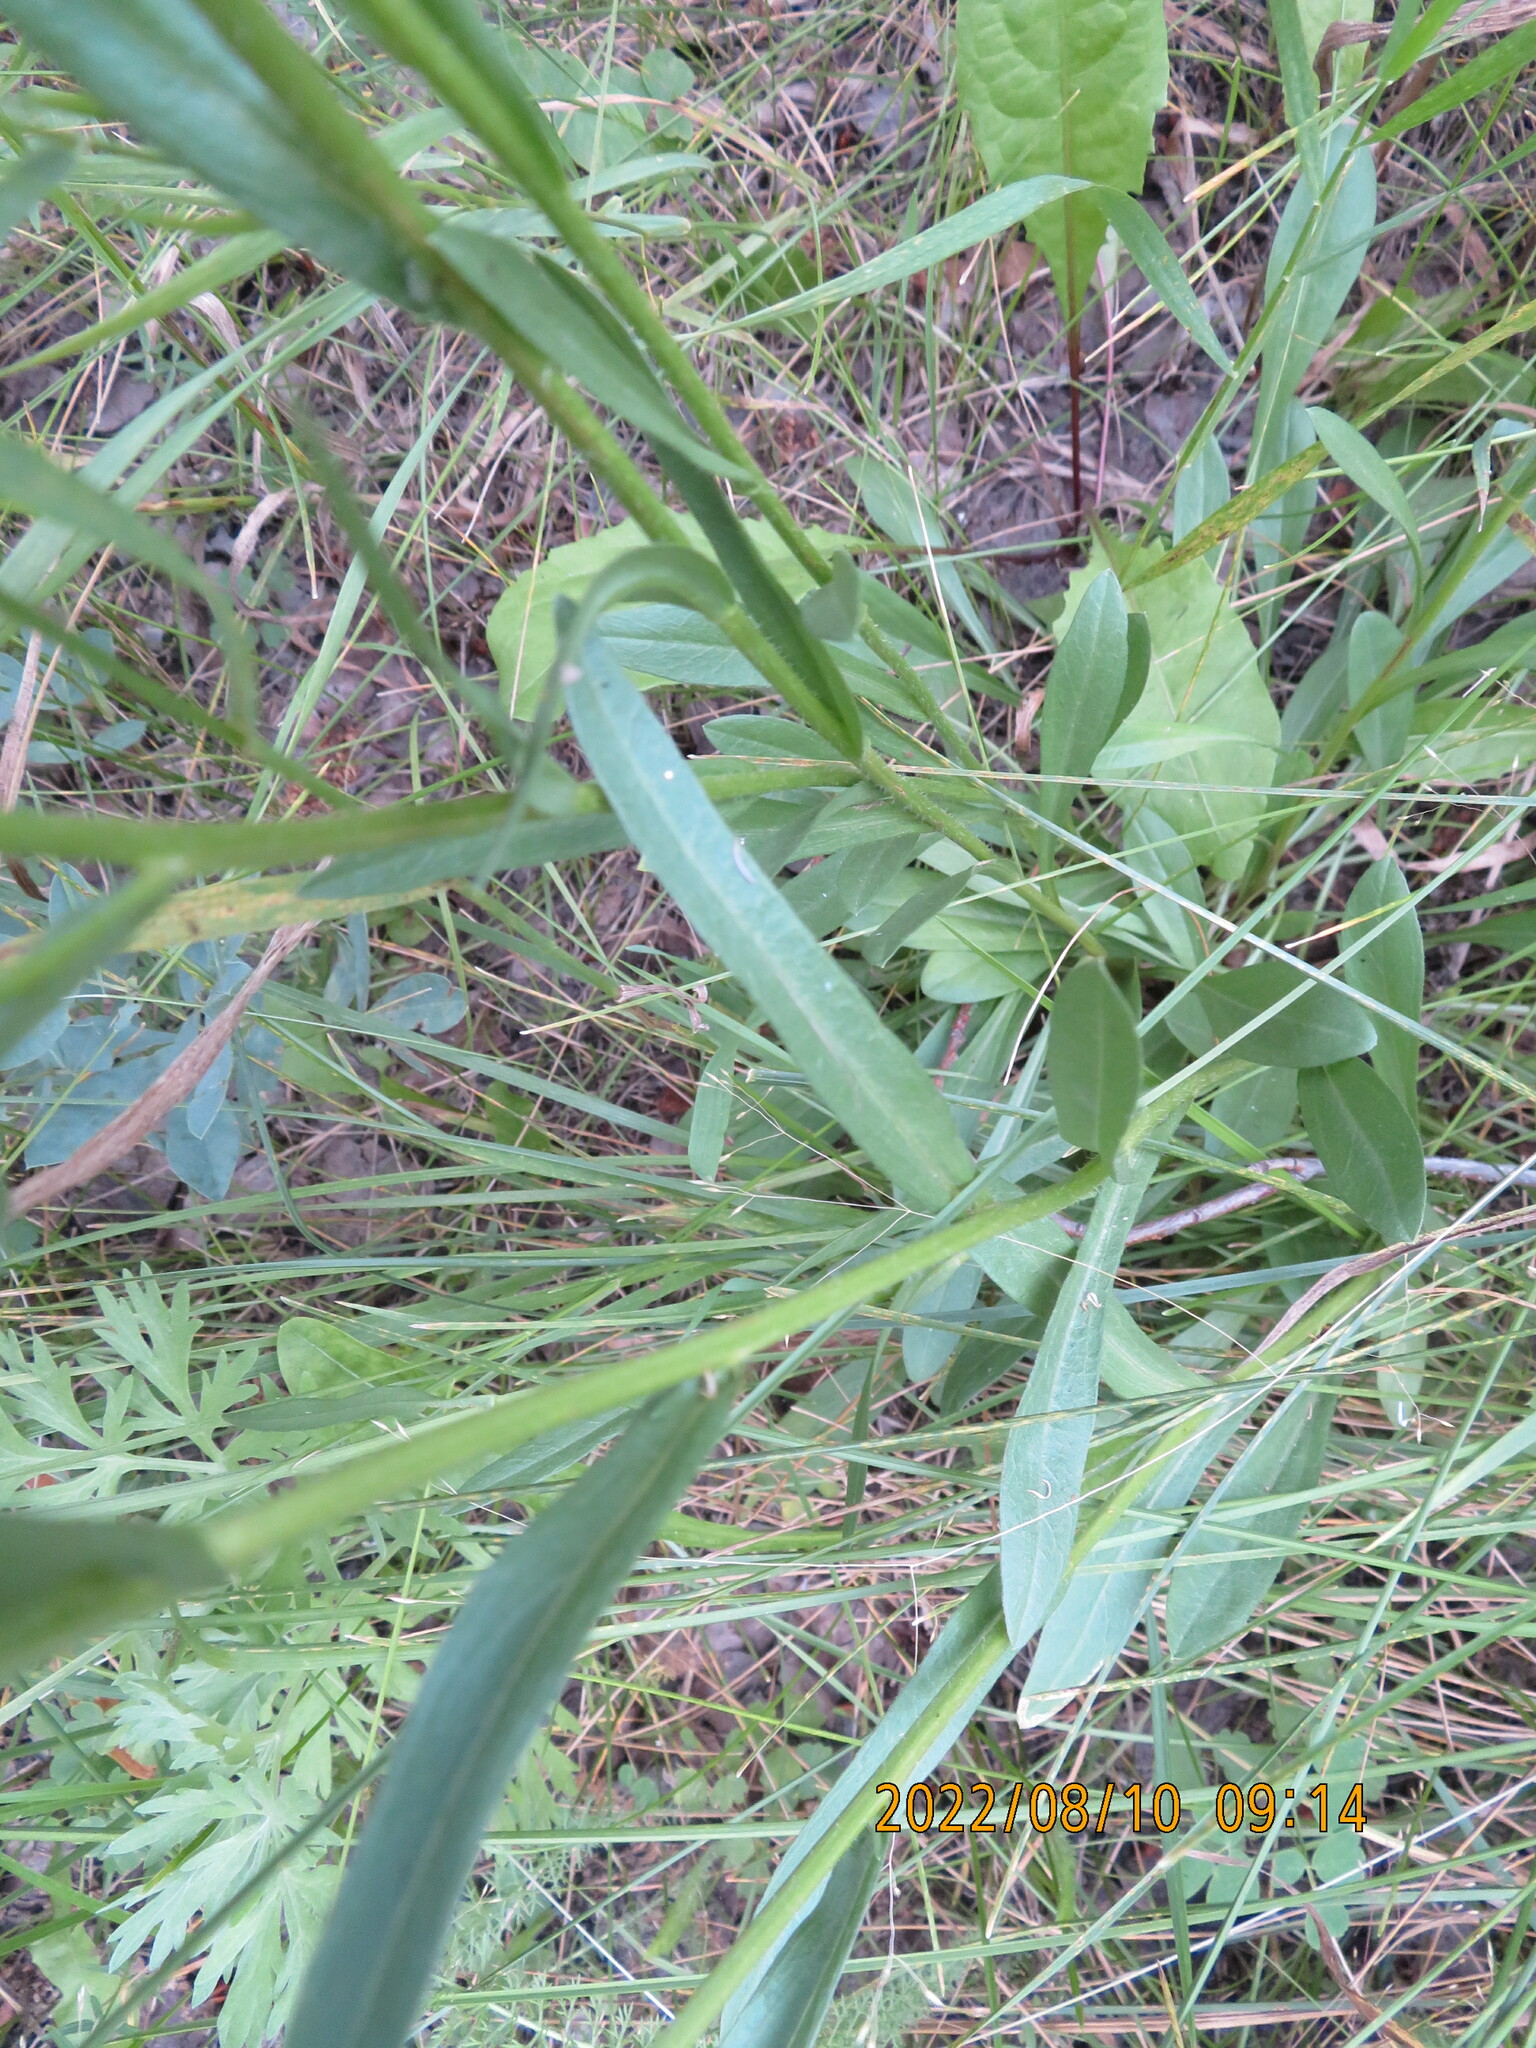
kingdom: Plantae
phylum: Tracheophyta
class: Magnoliopsida
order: Asterales
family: Asteraceae
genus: Erigeron
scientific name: Erigeron glabellus
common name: Smooth fleabane
